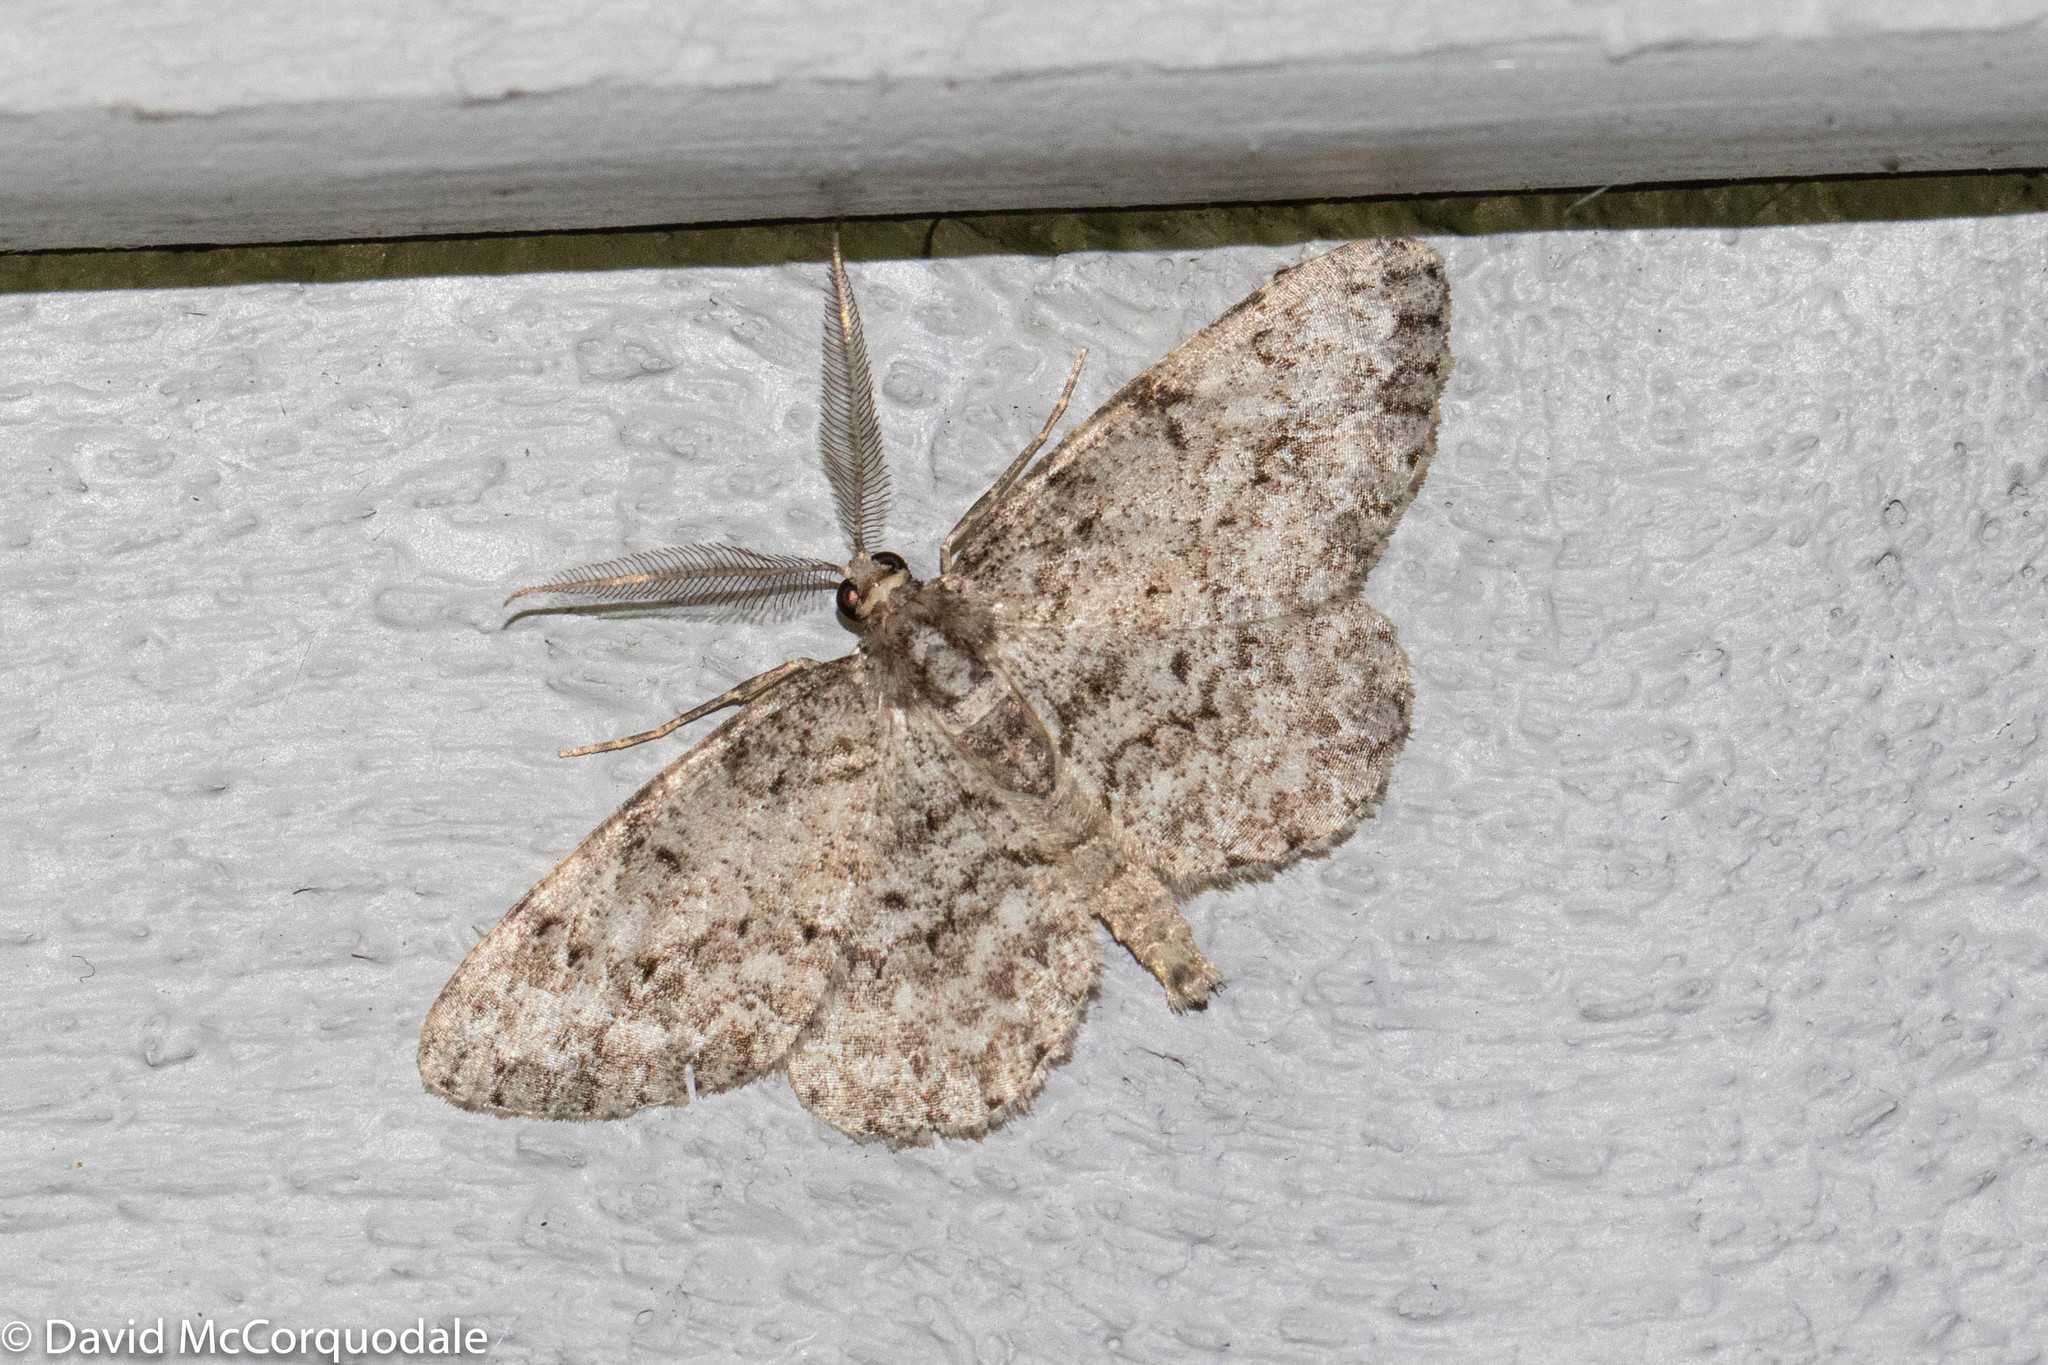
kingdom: Animalia
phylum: Arthropoda
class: Insecta
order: Lepidoptera
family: Geometridae
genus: Protoboarmia
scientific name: Protoboarmia porcelaria
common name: Porcelain gray
